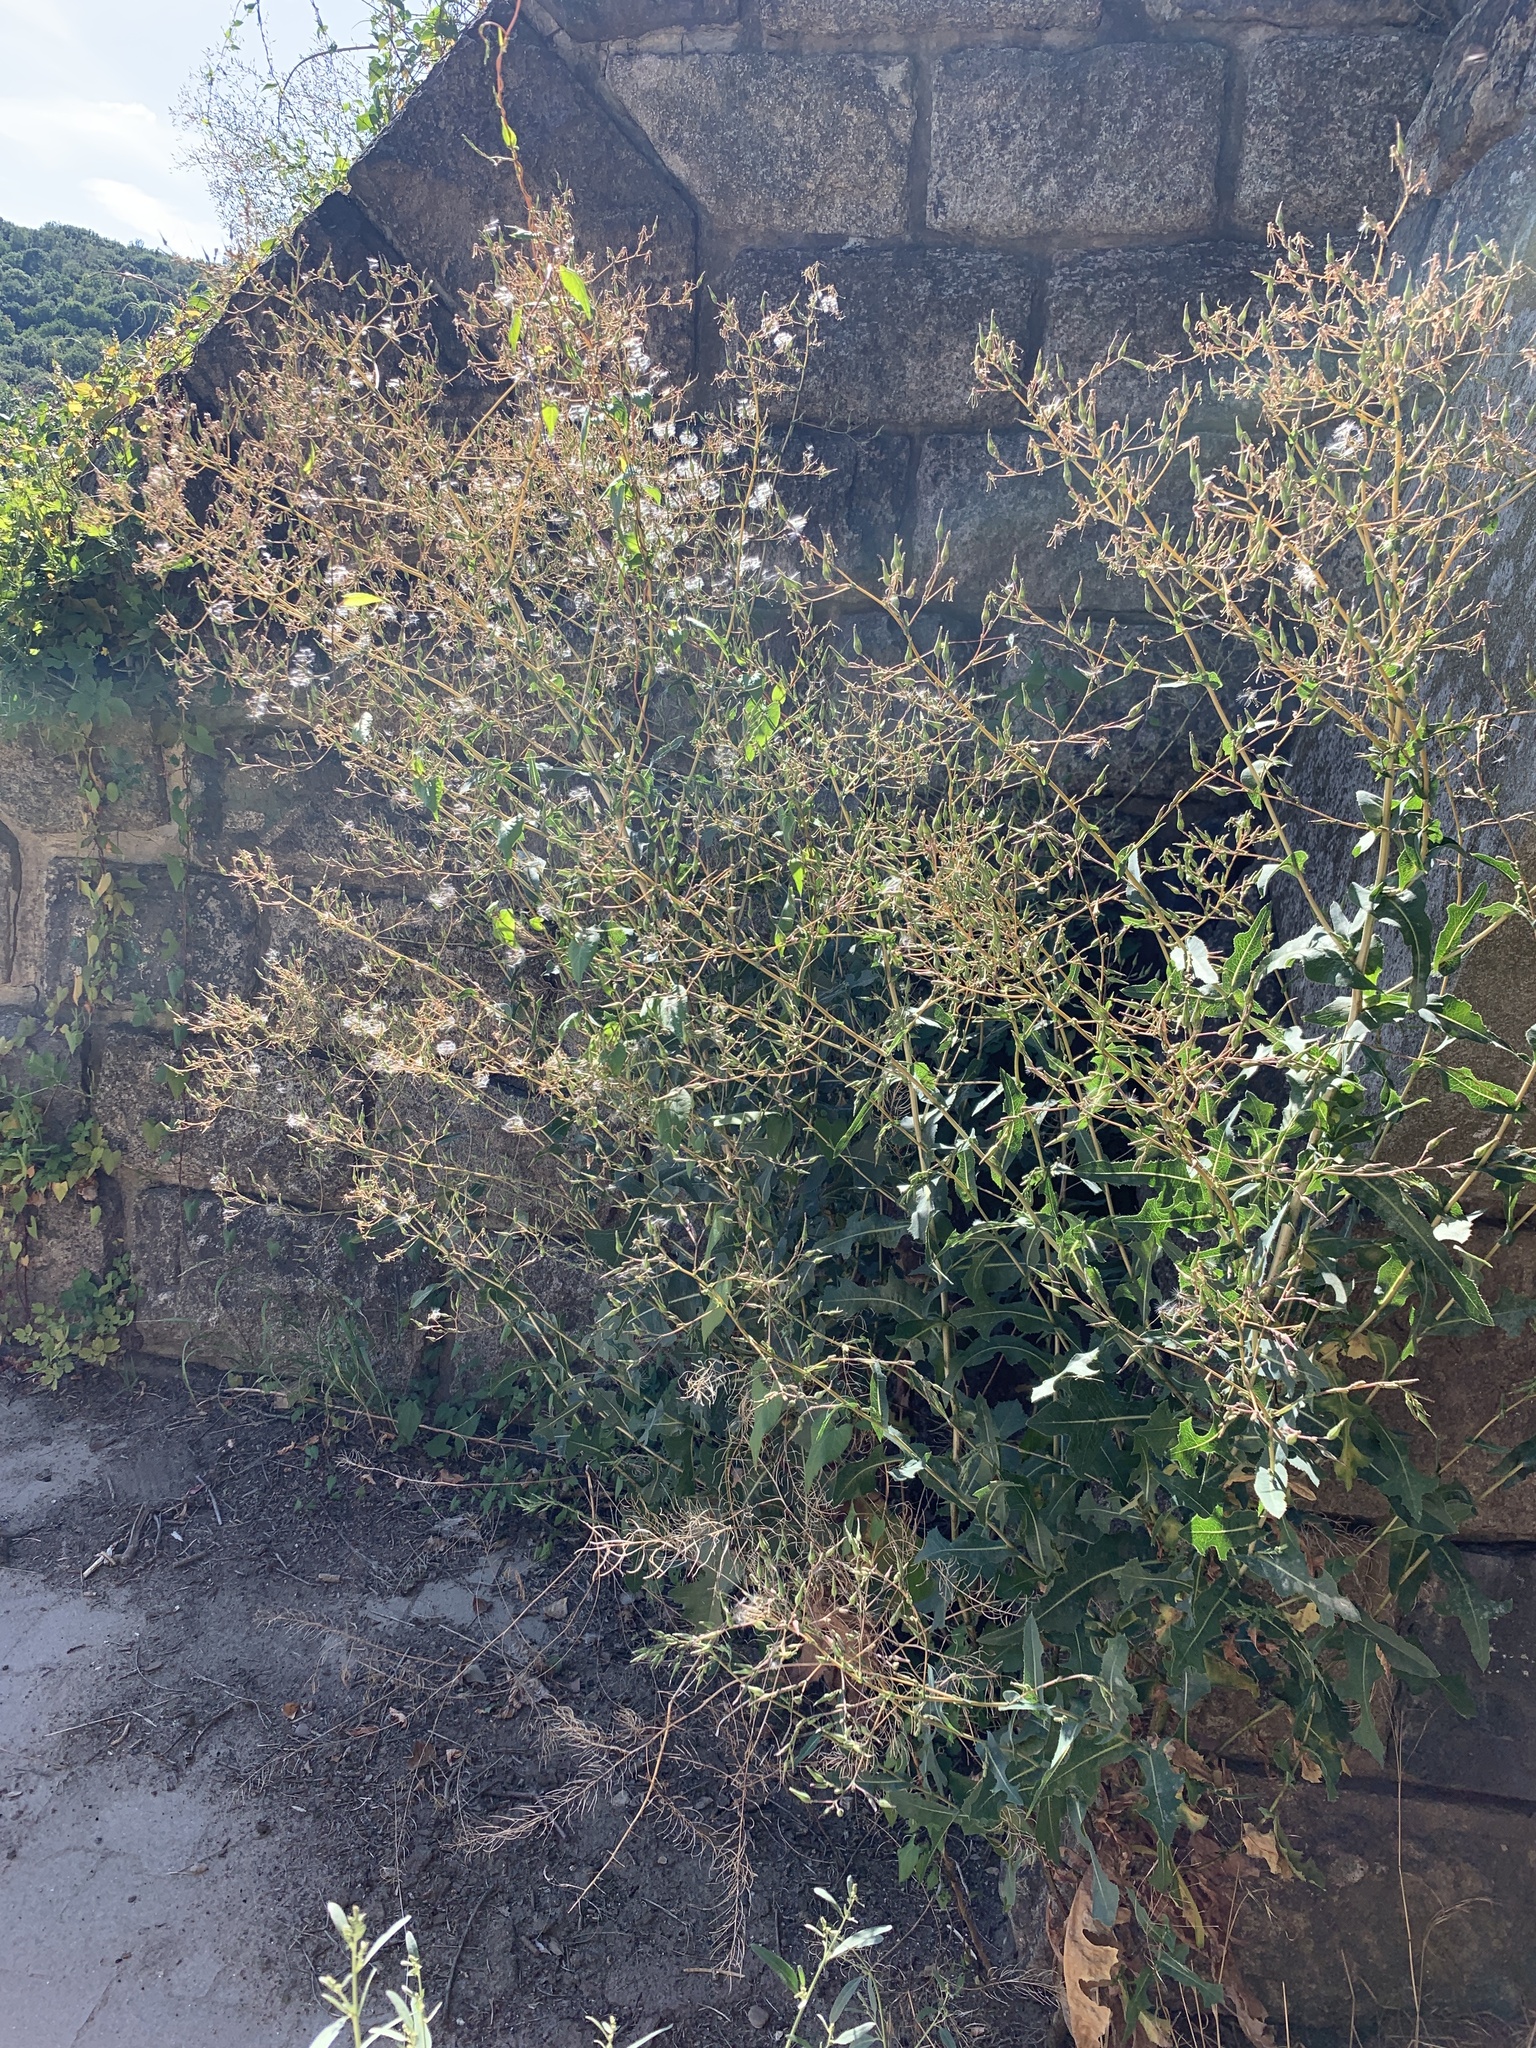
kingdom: Plantae
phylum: Tracheophyta
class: Magnoliopsida
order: Asterales
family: Asteraceae
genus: Lactuca
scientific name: Lactuca serriola
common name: Prickly lettuce
